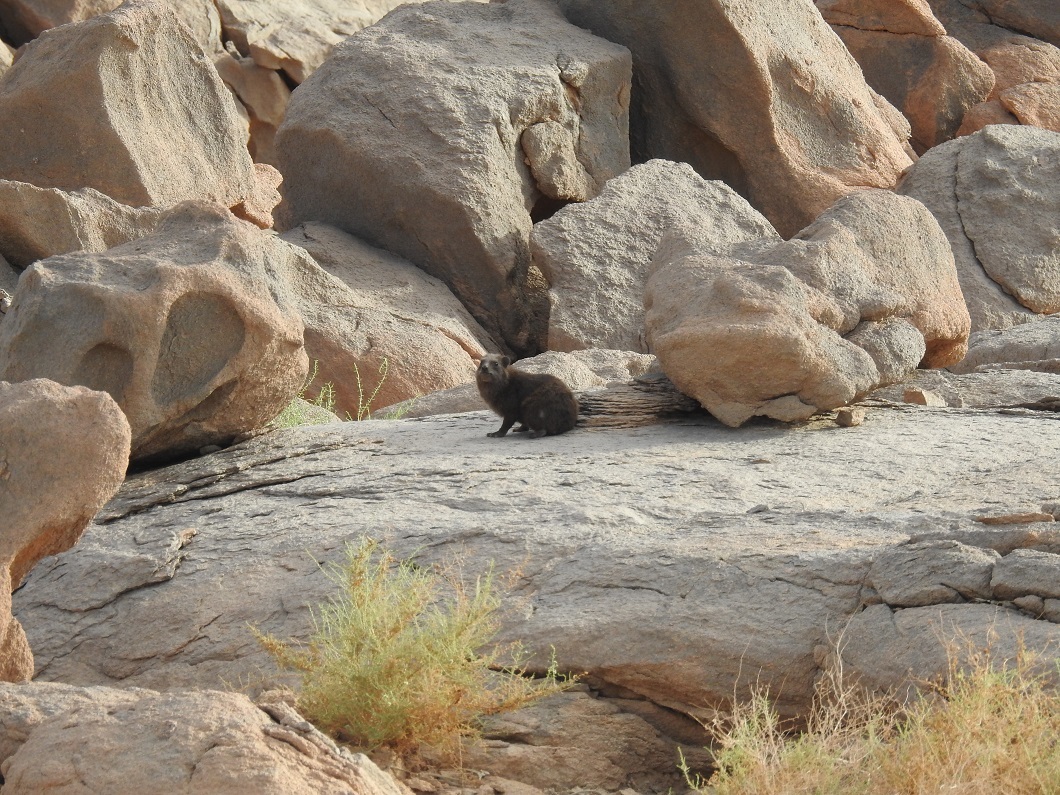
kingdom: Animalia
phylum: Chordata
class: Mammalia
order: Hyracoidea
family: Procaviidae
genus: Procavia
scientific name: Procavia capensis
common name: Rock hyrax
